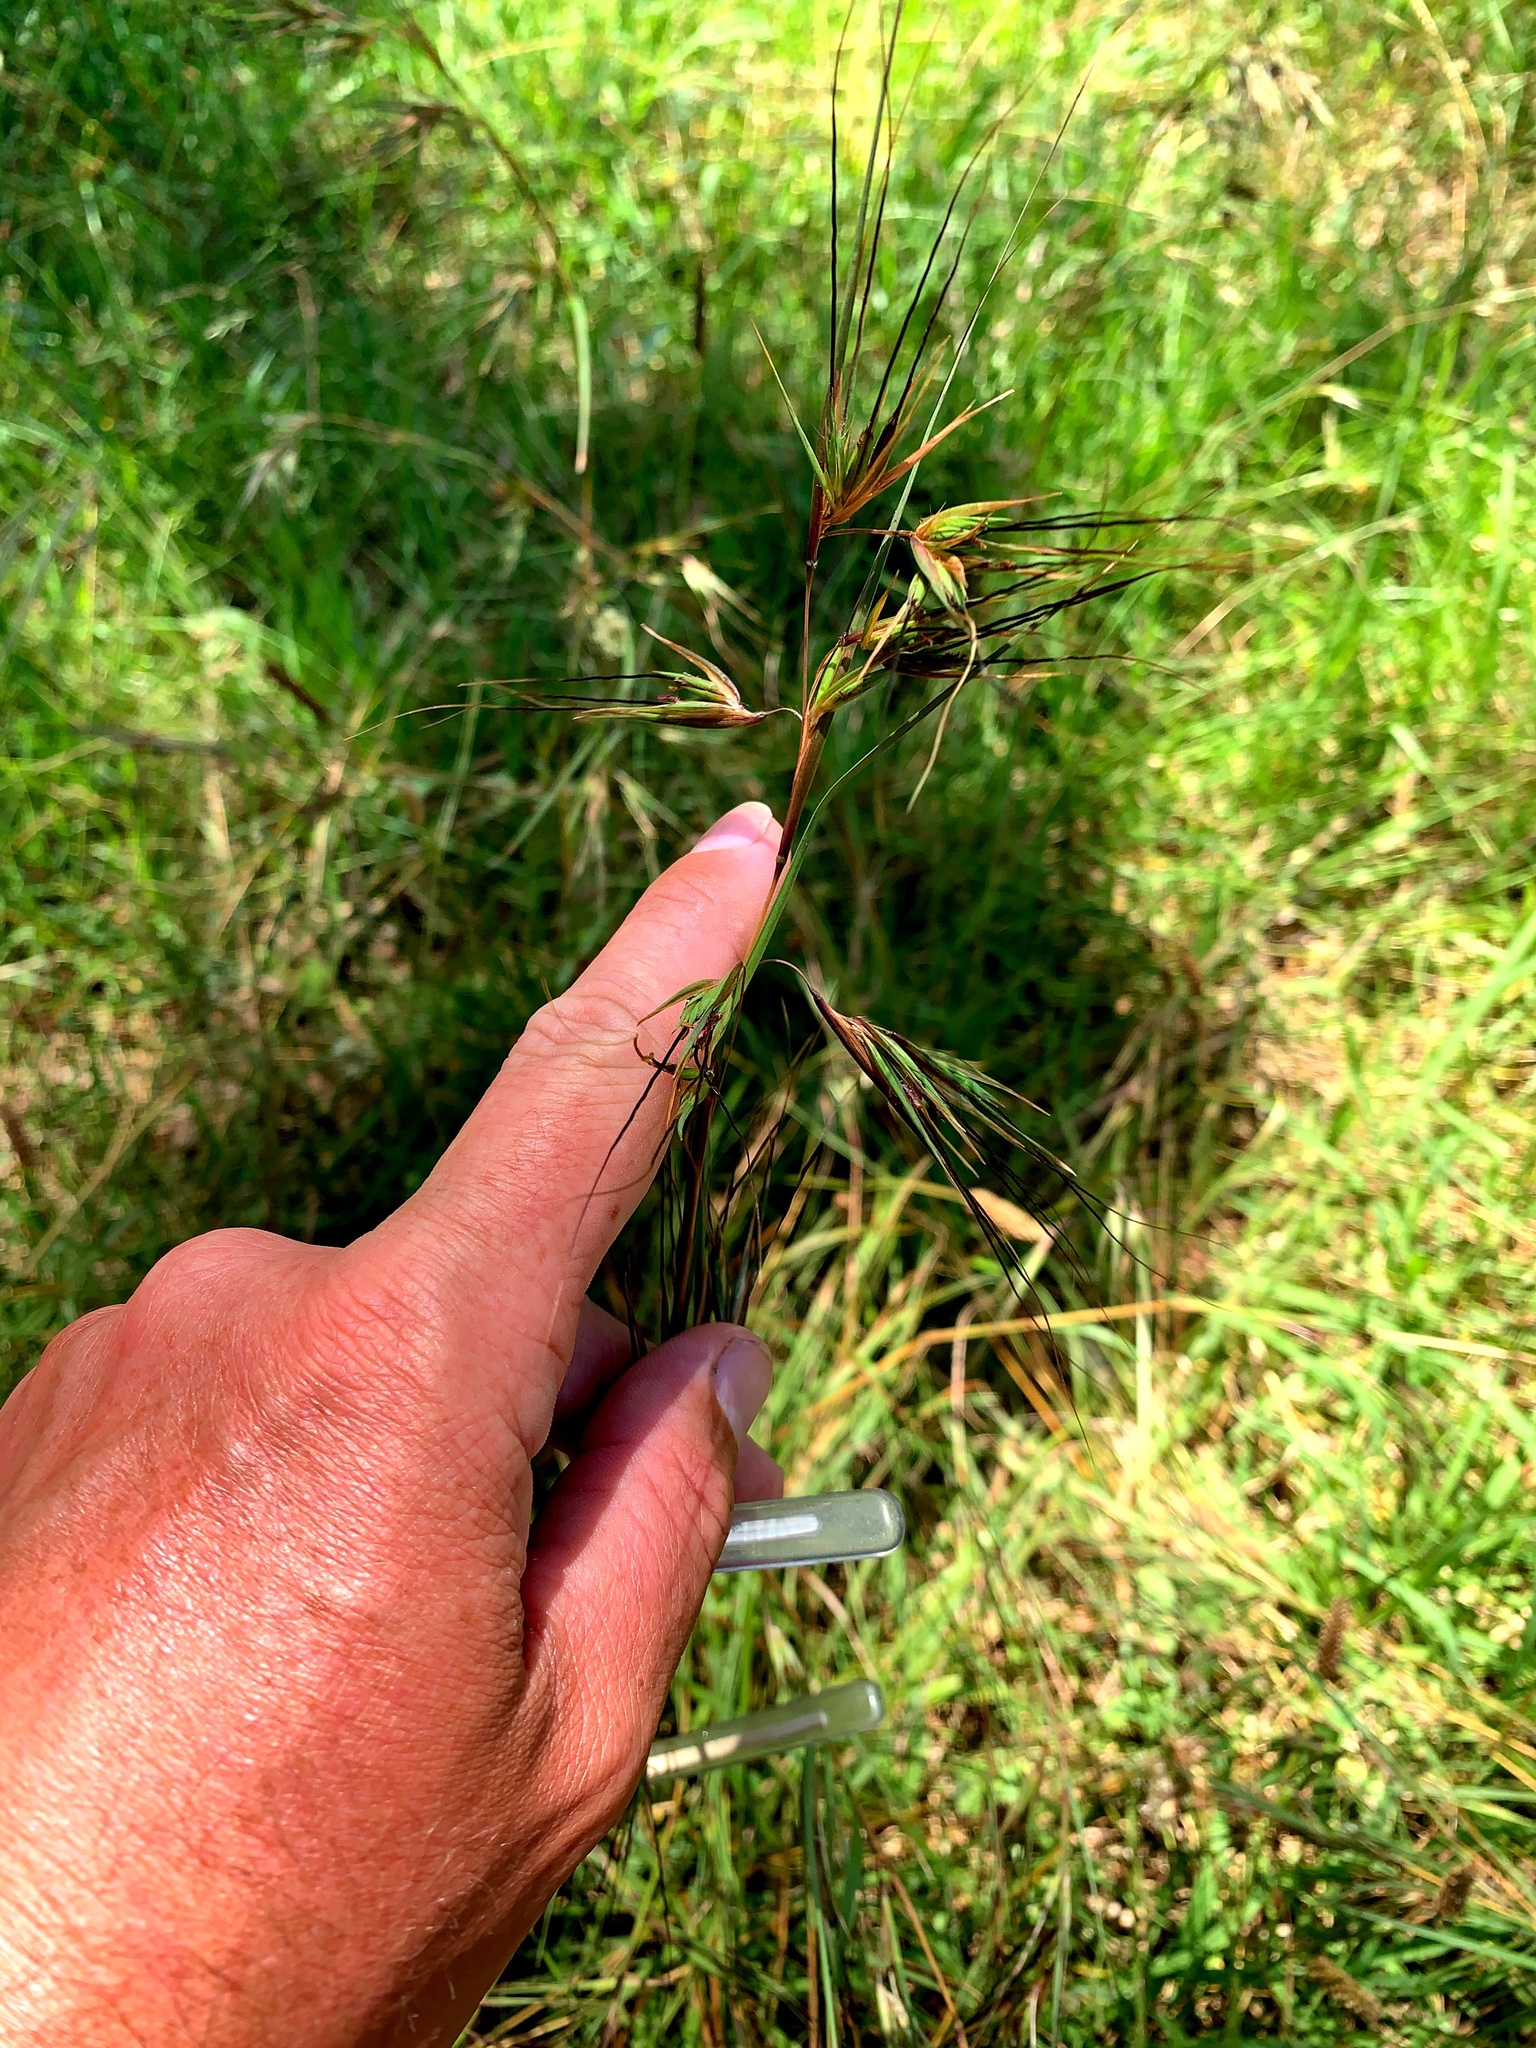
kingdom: Plantae
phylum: Tracheophyta
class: Liliopsida
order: Poales
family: Poaceae
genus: Themeda
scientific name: Themeda triandra
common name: Kangaroo grass
